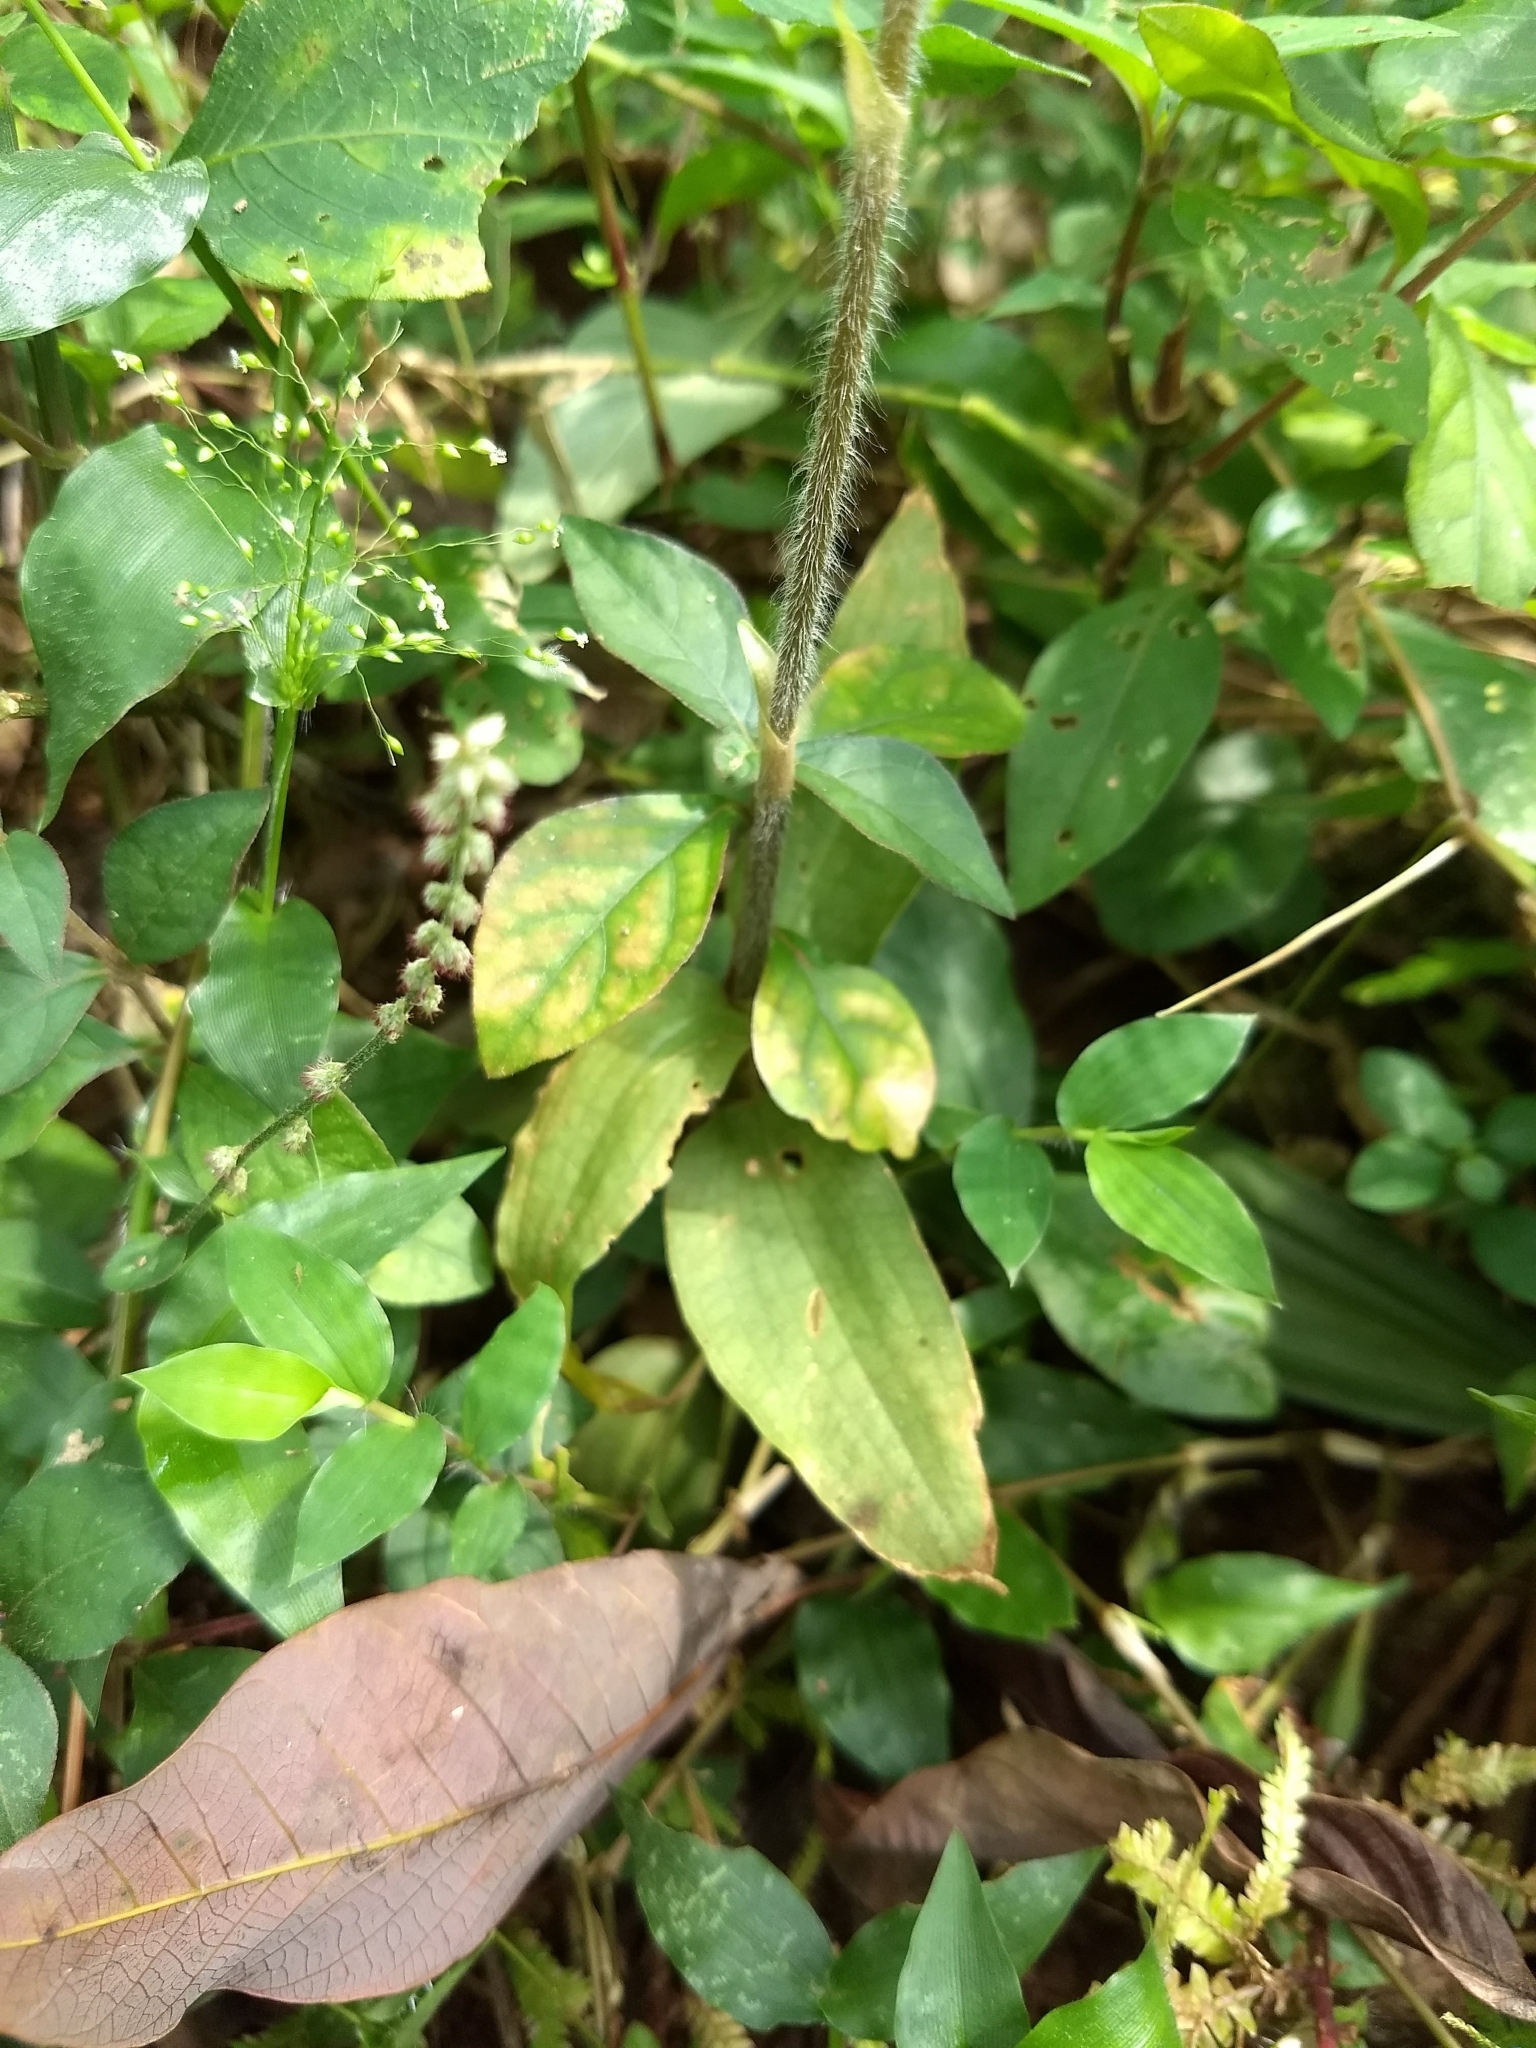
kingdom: Plantae
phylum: Tracheophyta
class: Liliopsida
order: Asparagales
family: Orchidaceae
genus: Zeuxine
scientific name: Zeuxine longilabris
